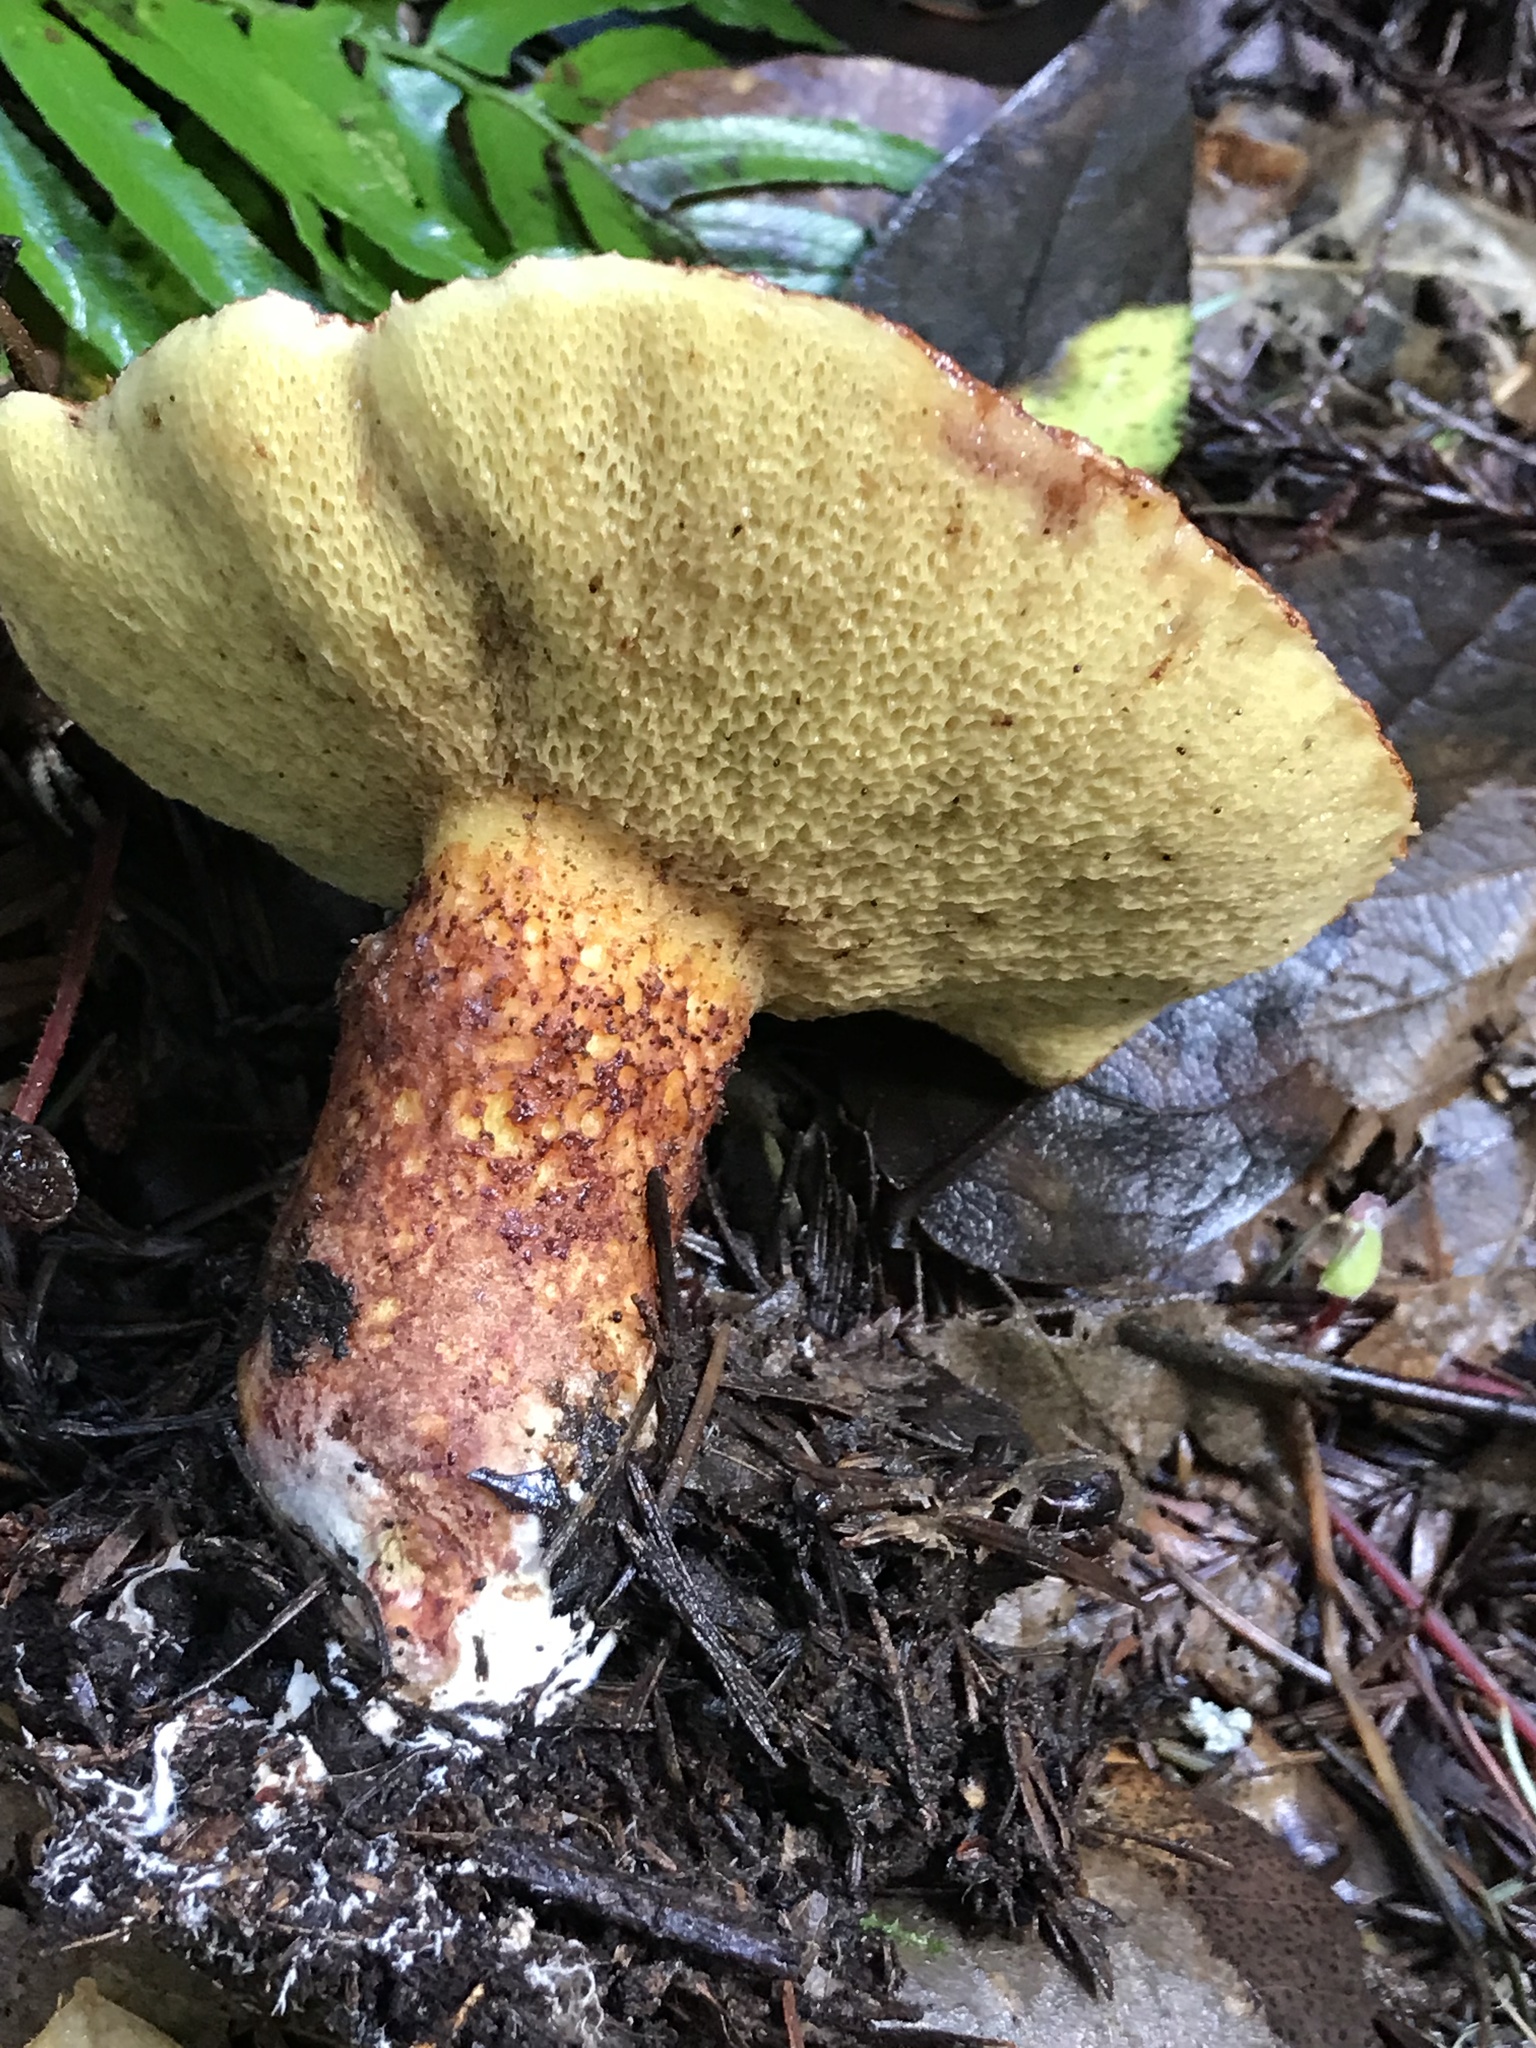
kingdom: Fungi
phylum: Basidiomycota
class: Agaricomycetes
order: Boletales
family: Suillaceae
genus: Suillus
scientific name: Suillus lakei
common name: Western painted suillus
